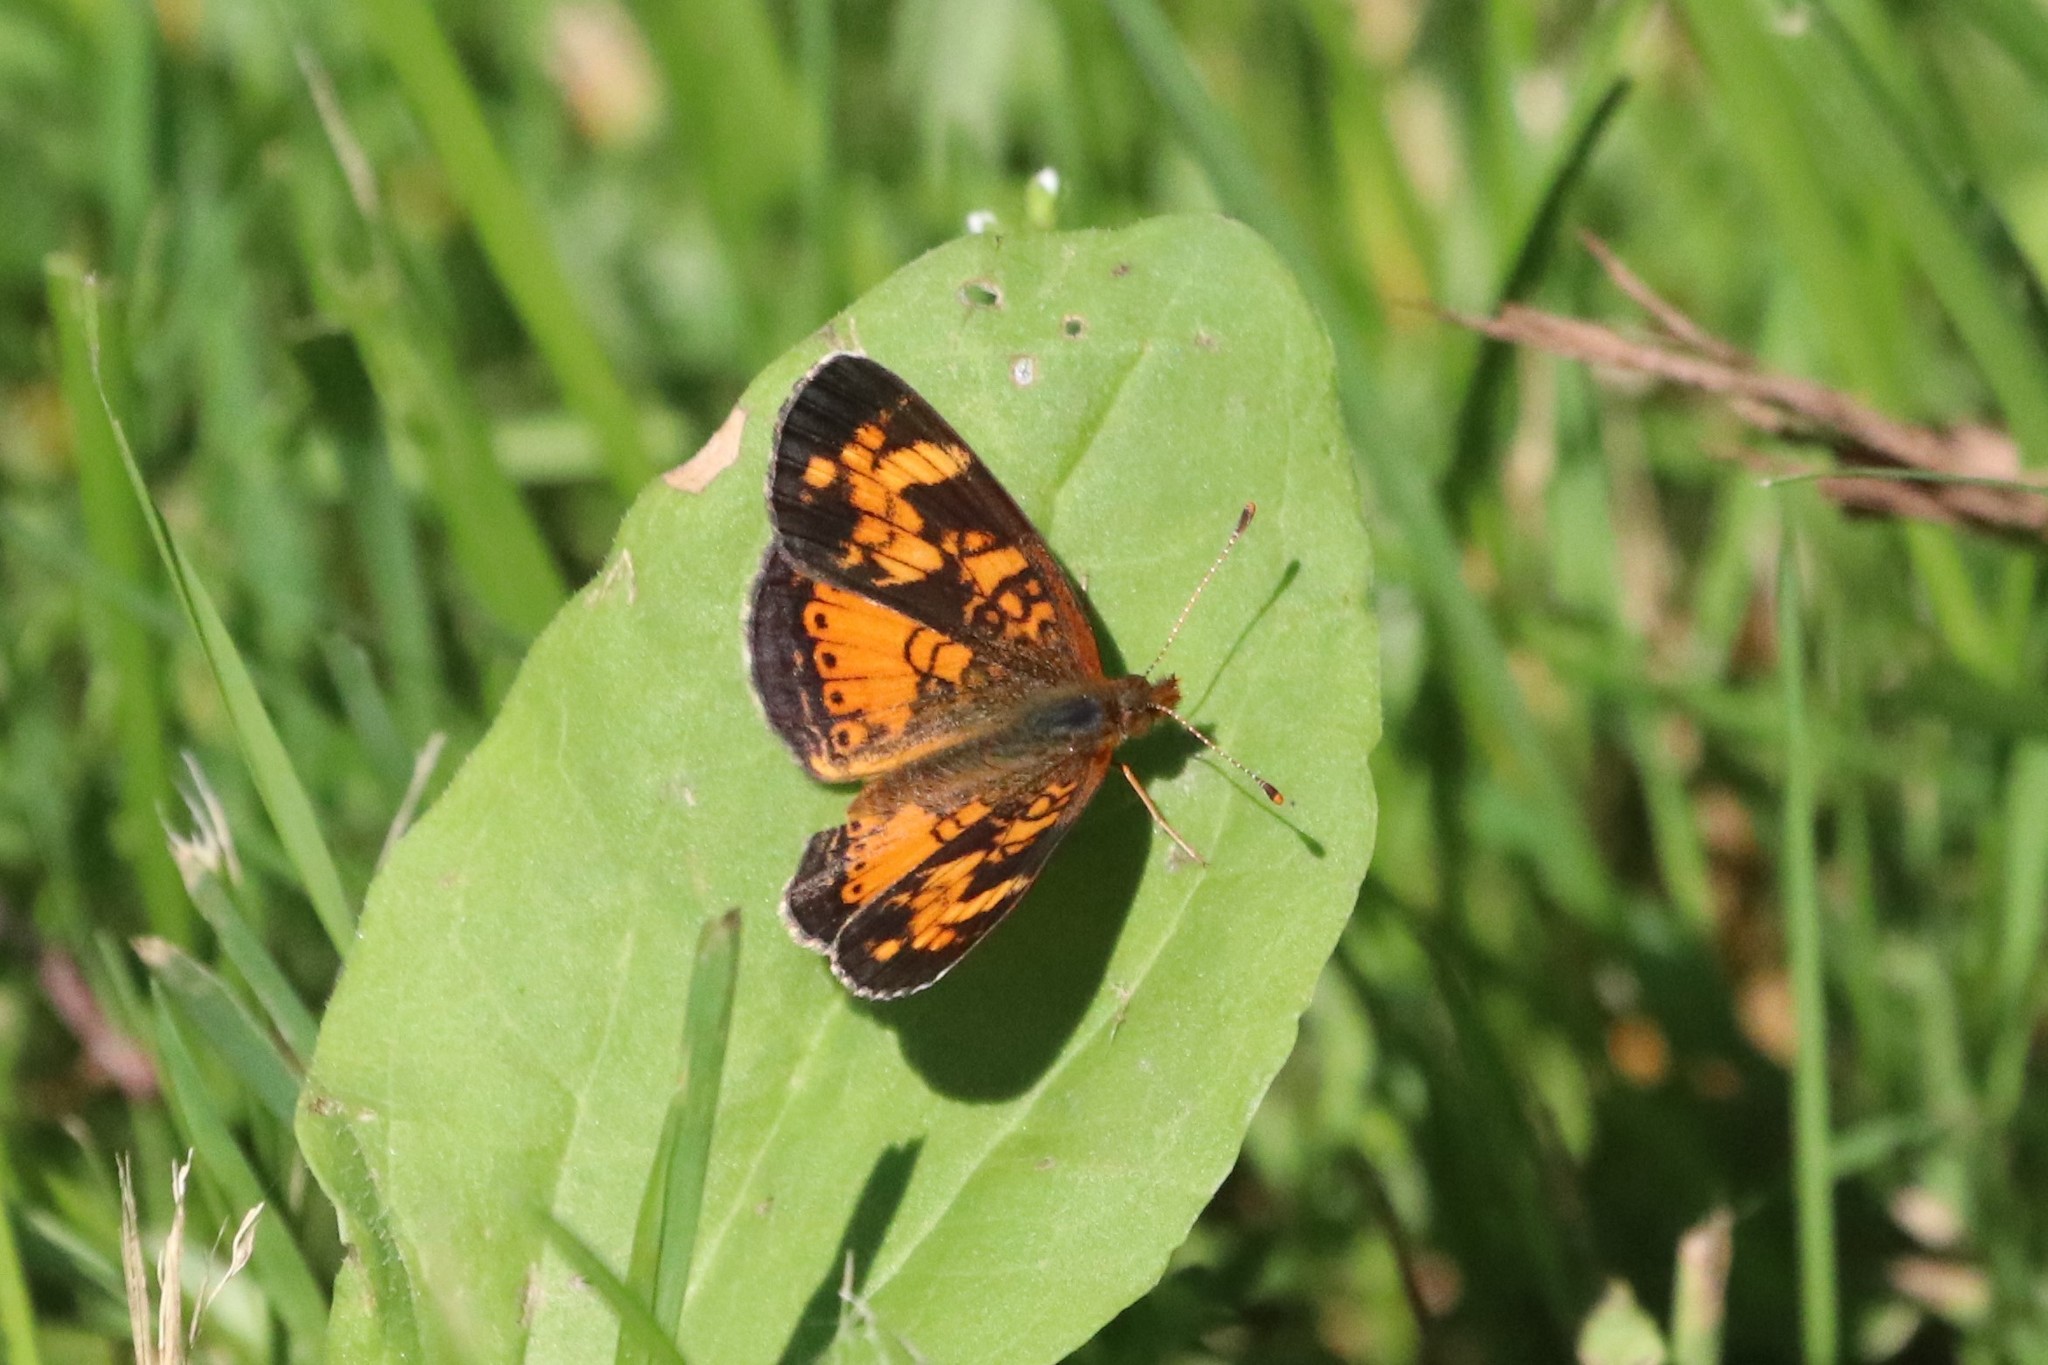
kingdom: Animalia
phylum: Arthropoda
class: Insecta
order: Lepidoptera
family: Nymphalidae
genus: Phyciodes
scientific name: Phyciodes tharos
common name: Pearl crescent
